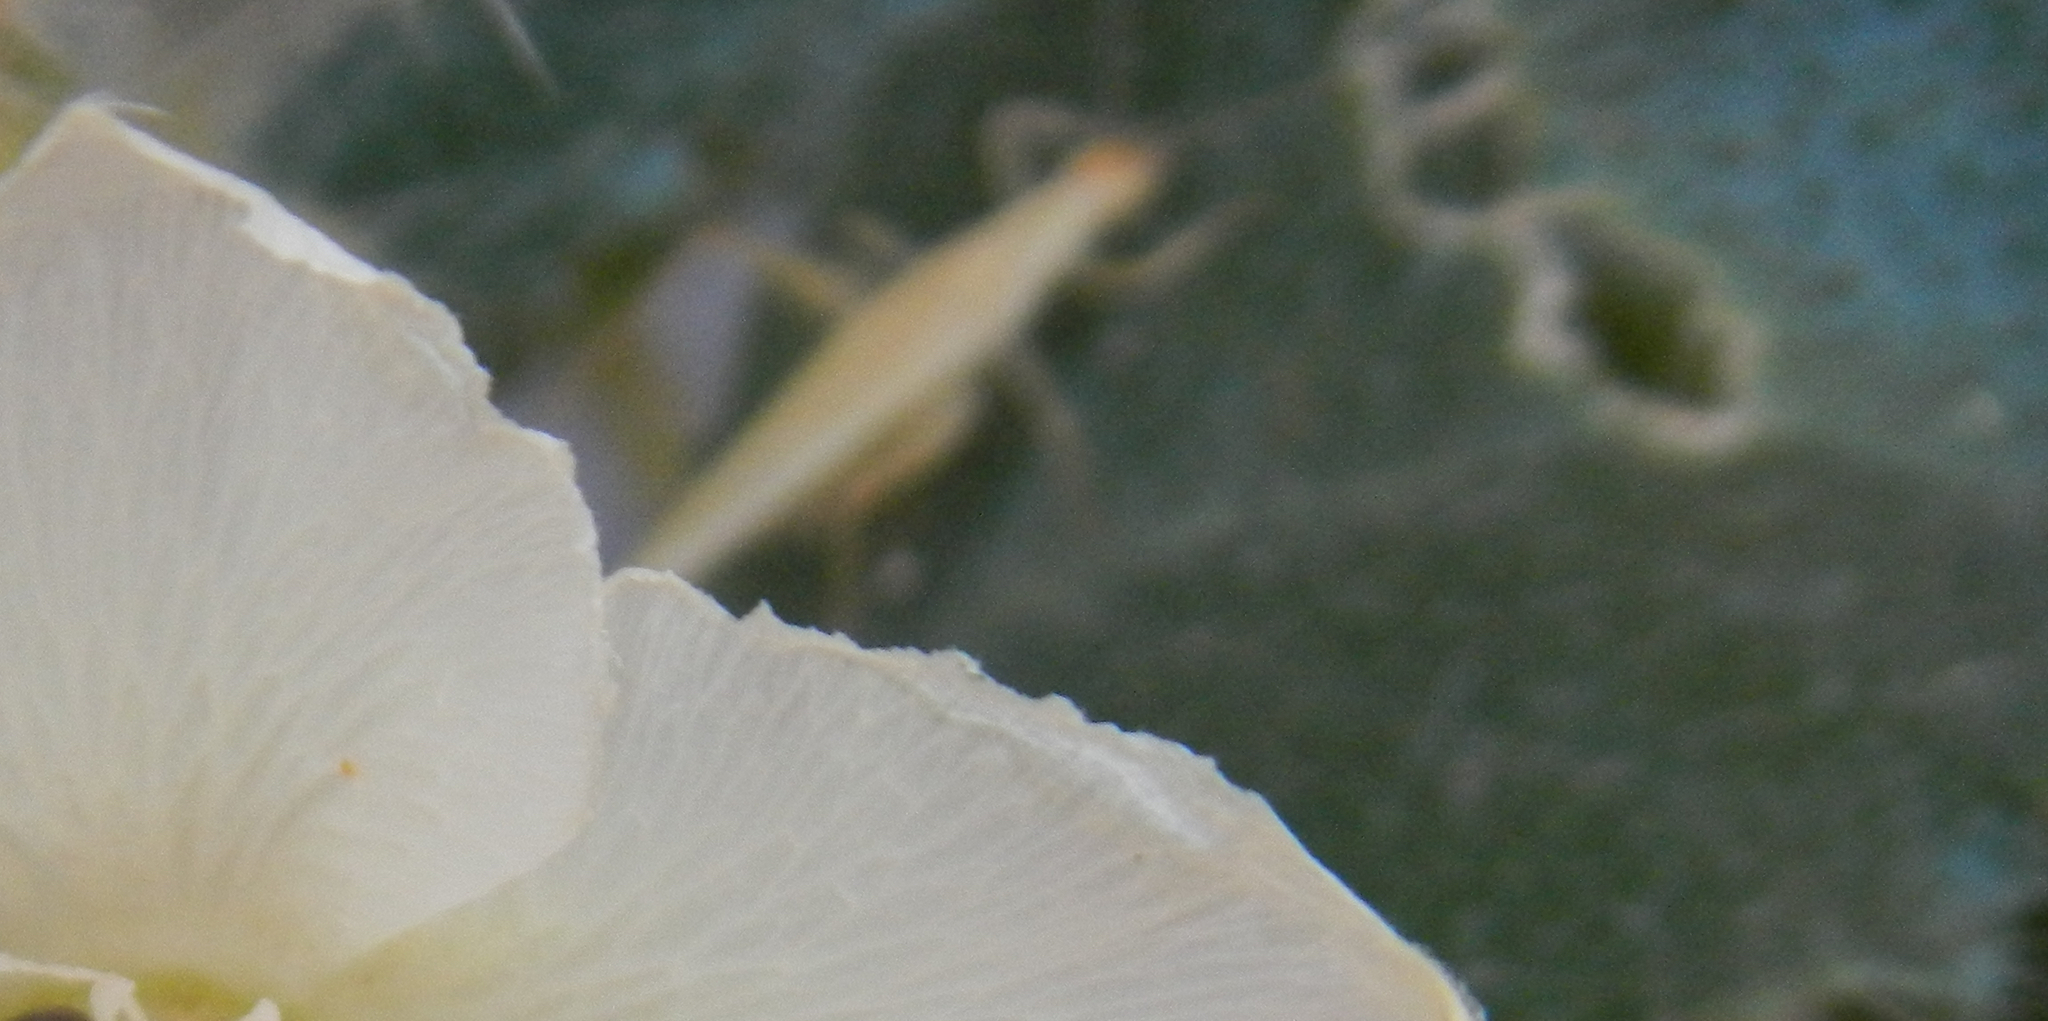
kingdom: Animalia
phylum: Arthropoda
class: Insecta
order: Orthoptera
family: Gryllidae
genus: Oecanthus
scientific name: Oecanthus
